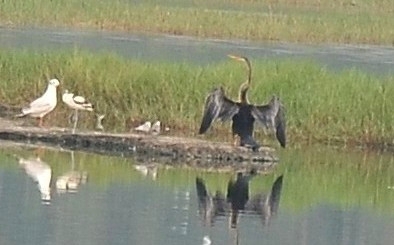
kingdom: Animalia
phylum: Chordata
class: Aves
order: Suliformes
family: Anhingidae
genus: Anhinga
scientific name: Anhinga melanogaster
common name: Oriental darter
